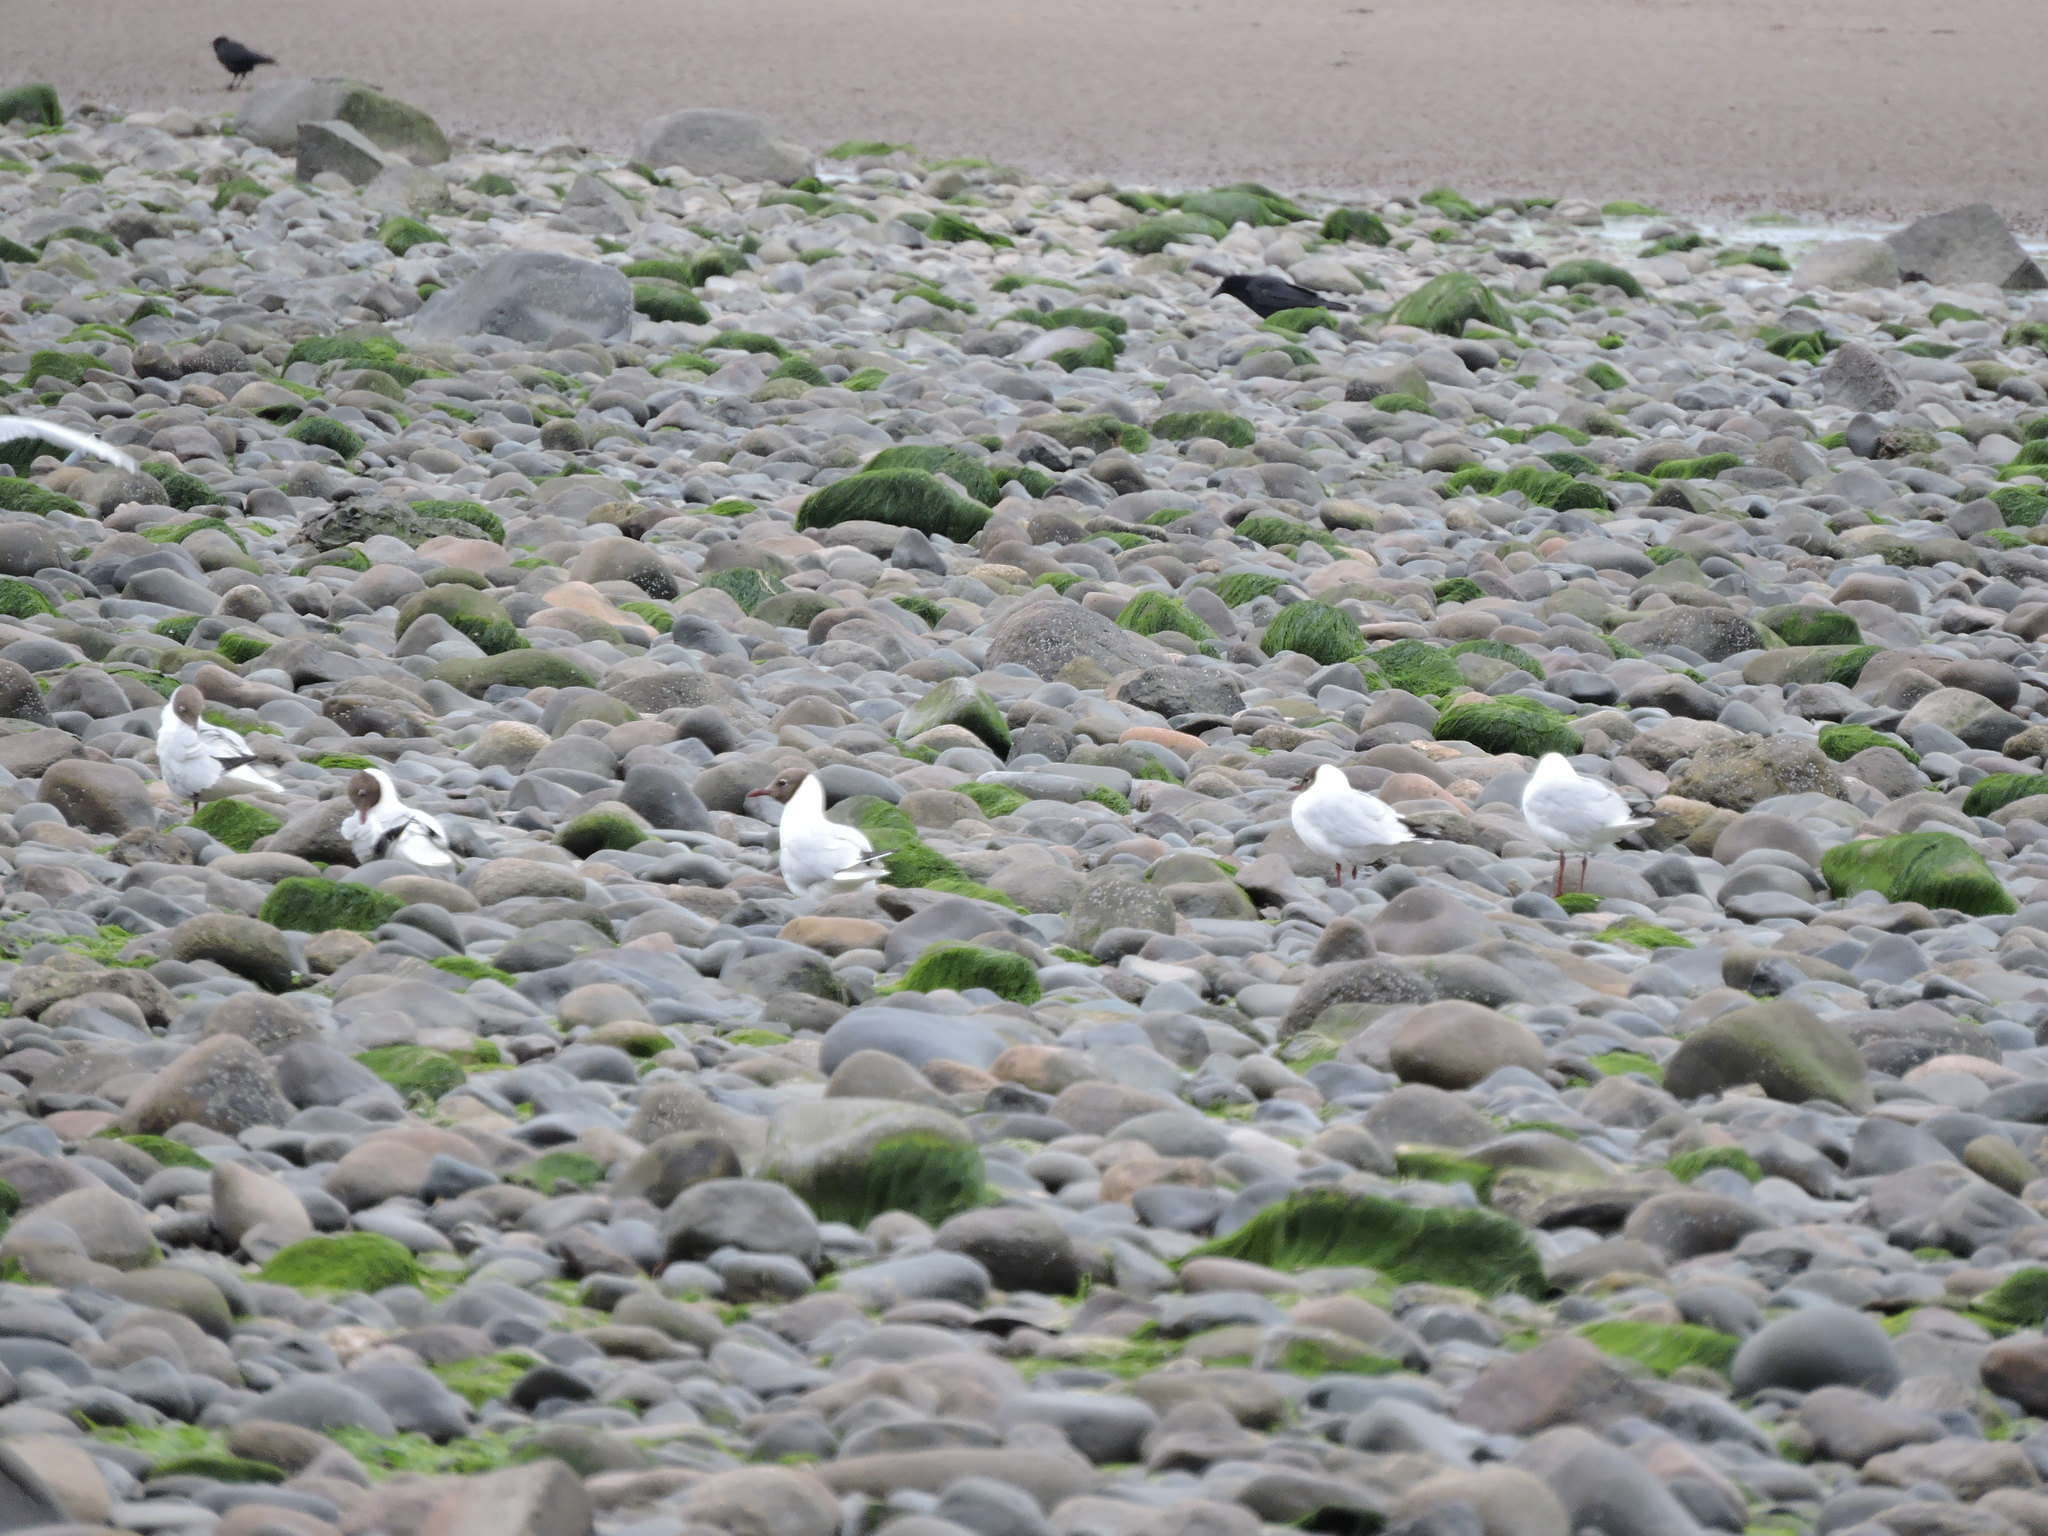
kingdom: Animalia
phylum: Chordata
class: Aves
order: Charadriiformes
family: Laridae
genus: Chroicocephalus
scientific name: Chroicocephalus ridibundus
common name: Black-headed gull
